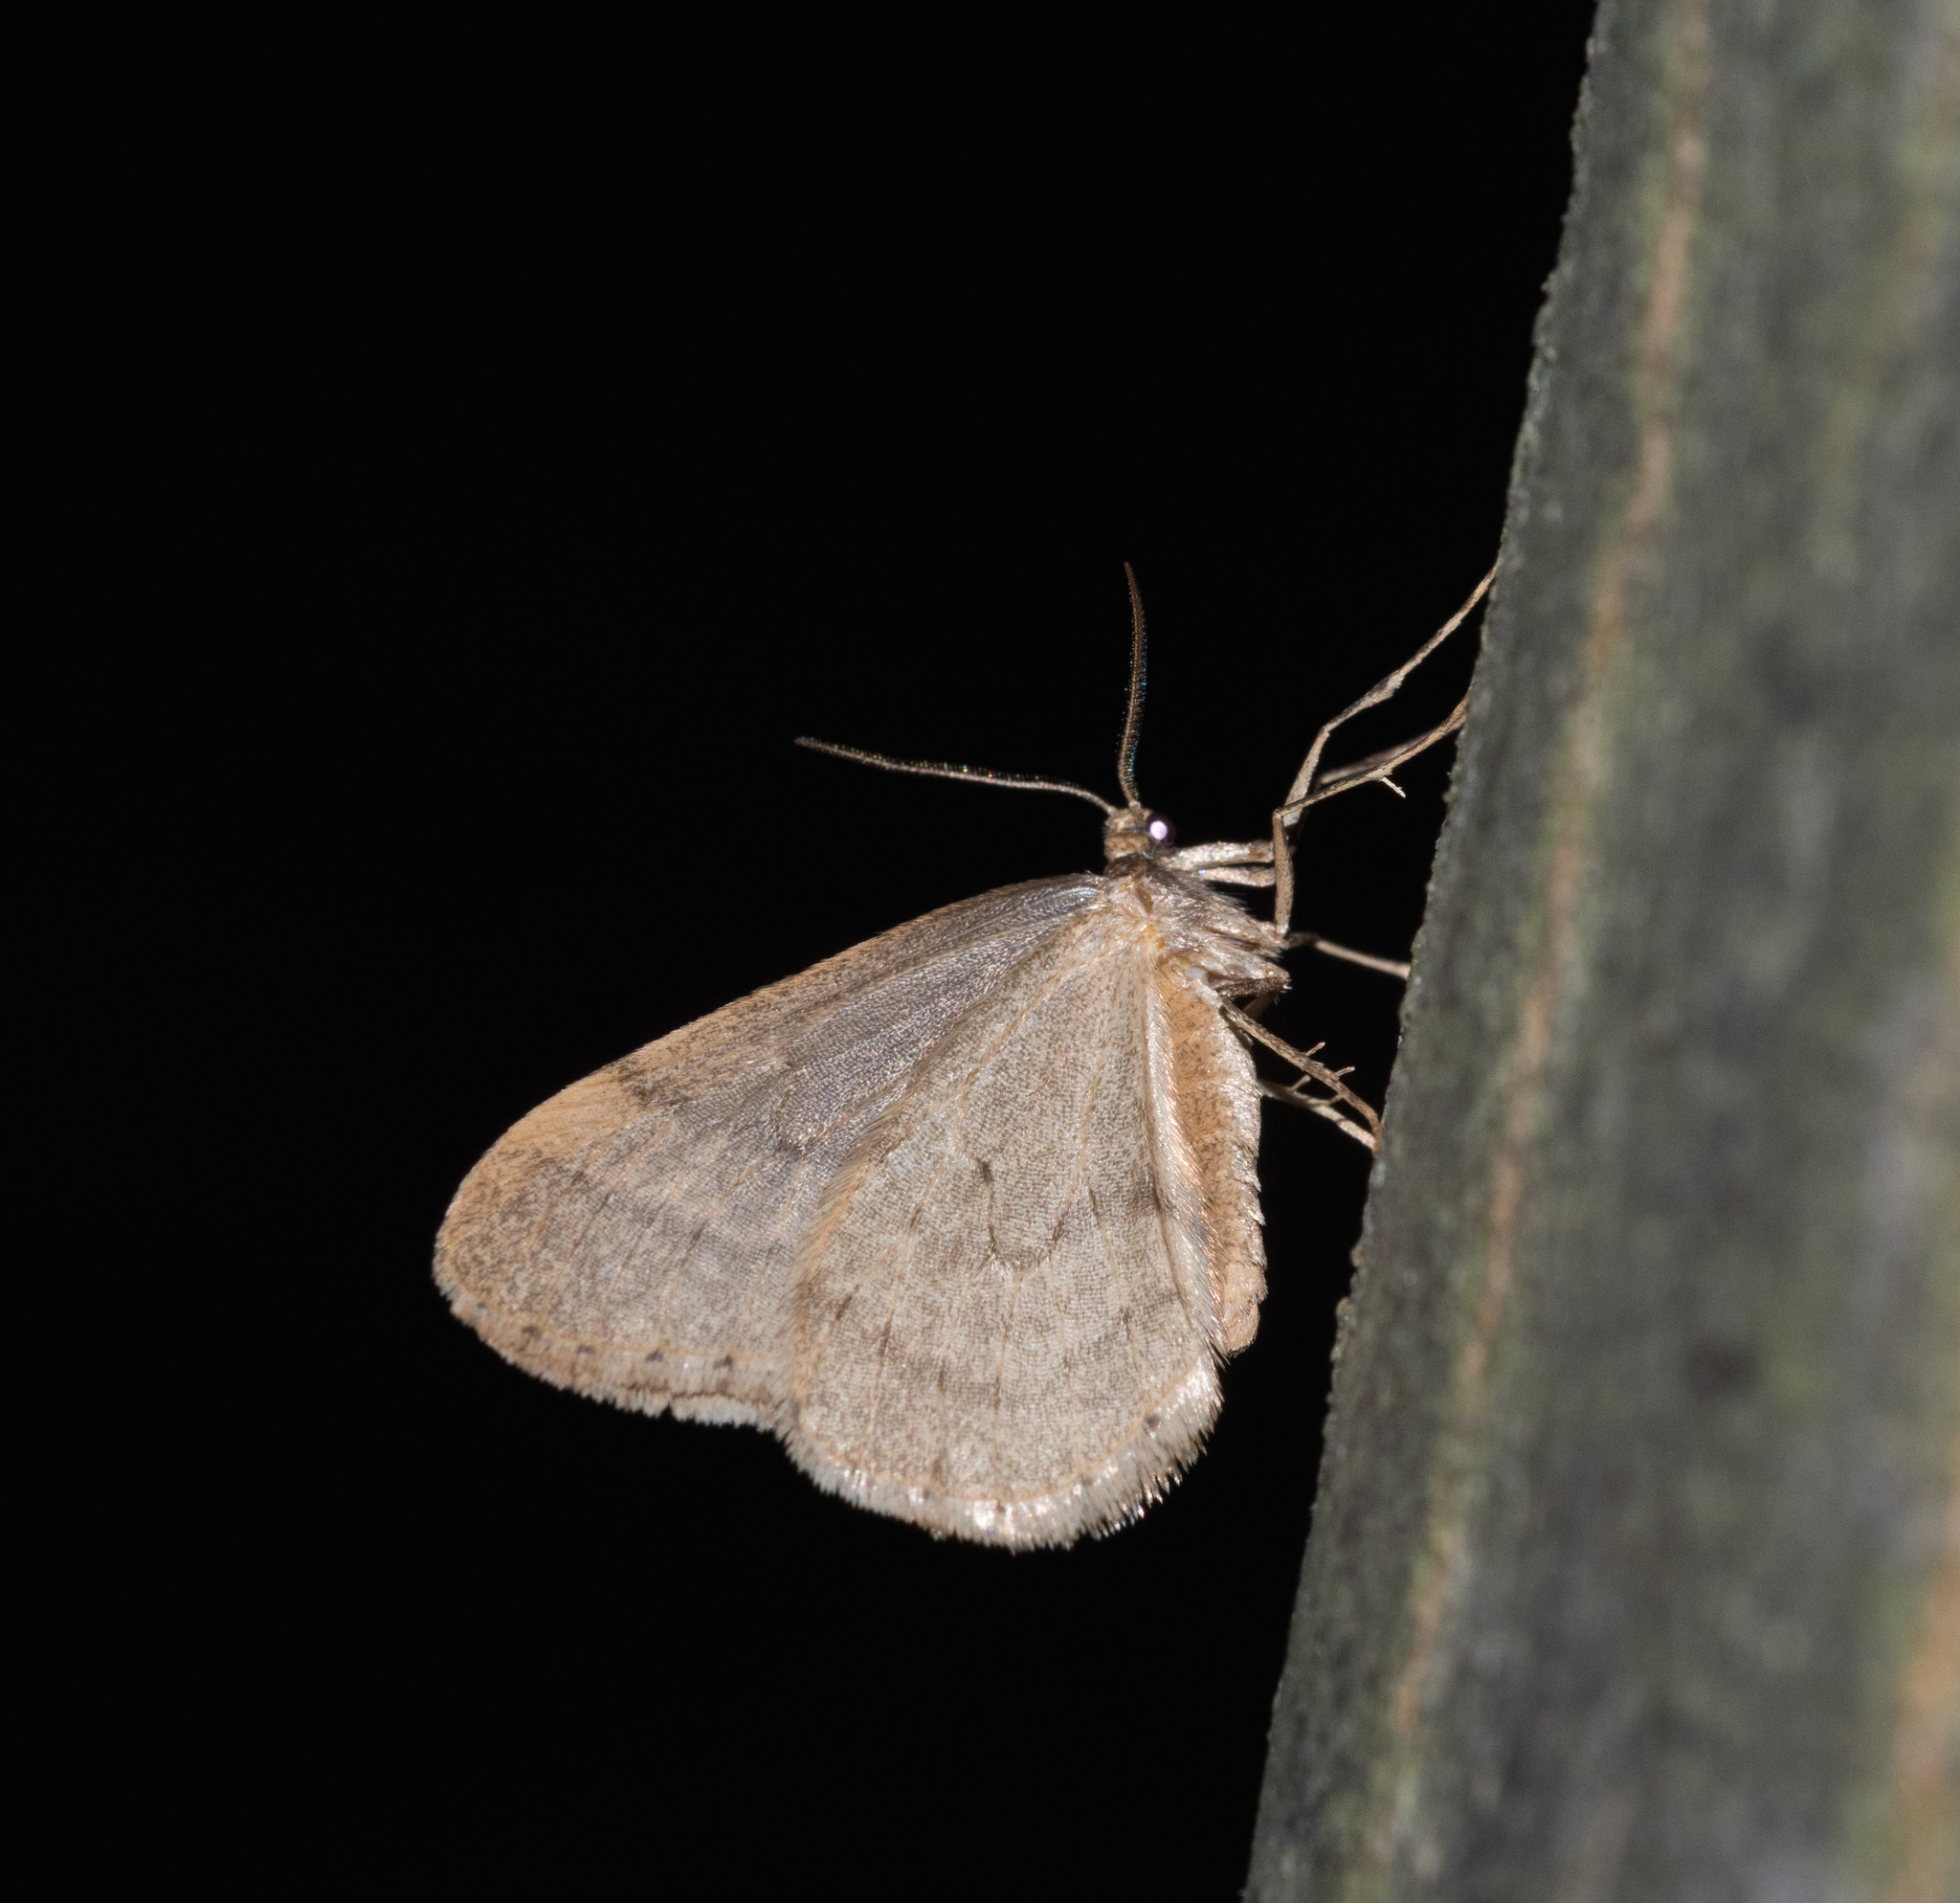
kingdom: Animalia
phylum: Arthropoda
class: Insecta
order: Lepidoptera
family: Geometridae
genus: Operophtera
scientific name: Operophtera brumata
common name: Winter moth
